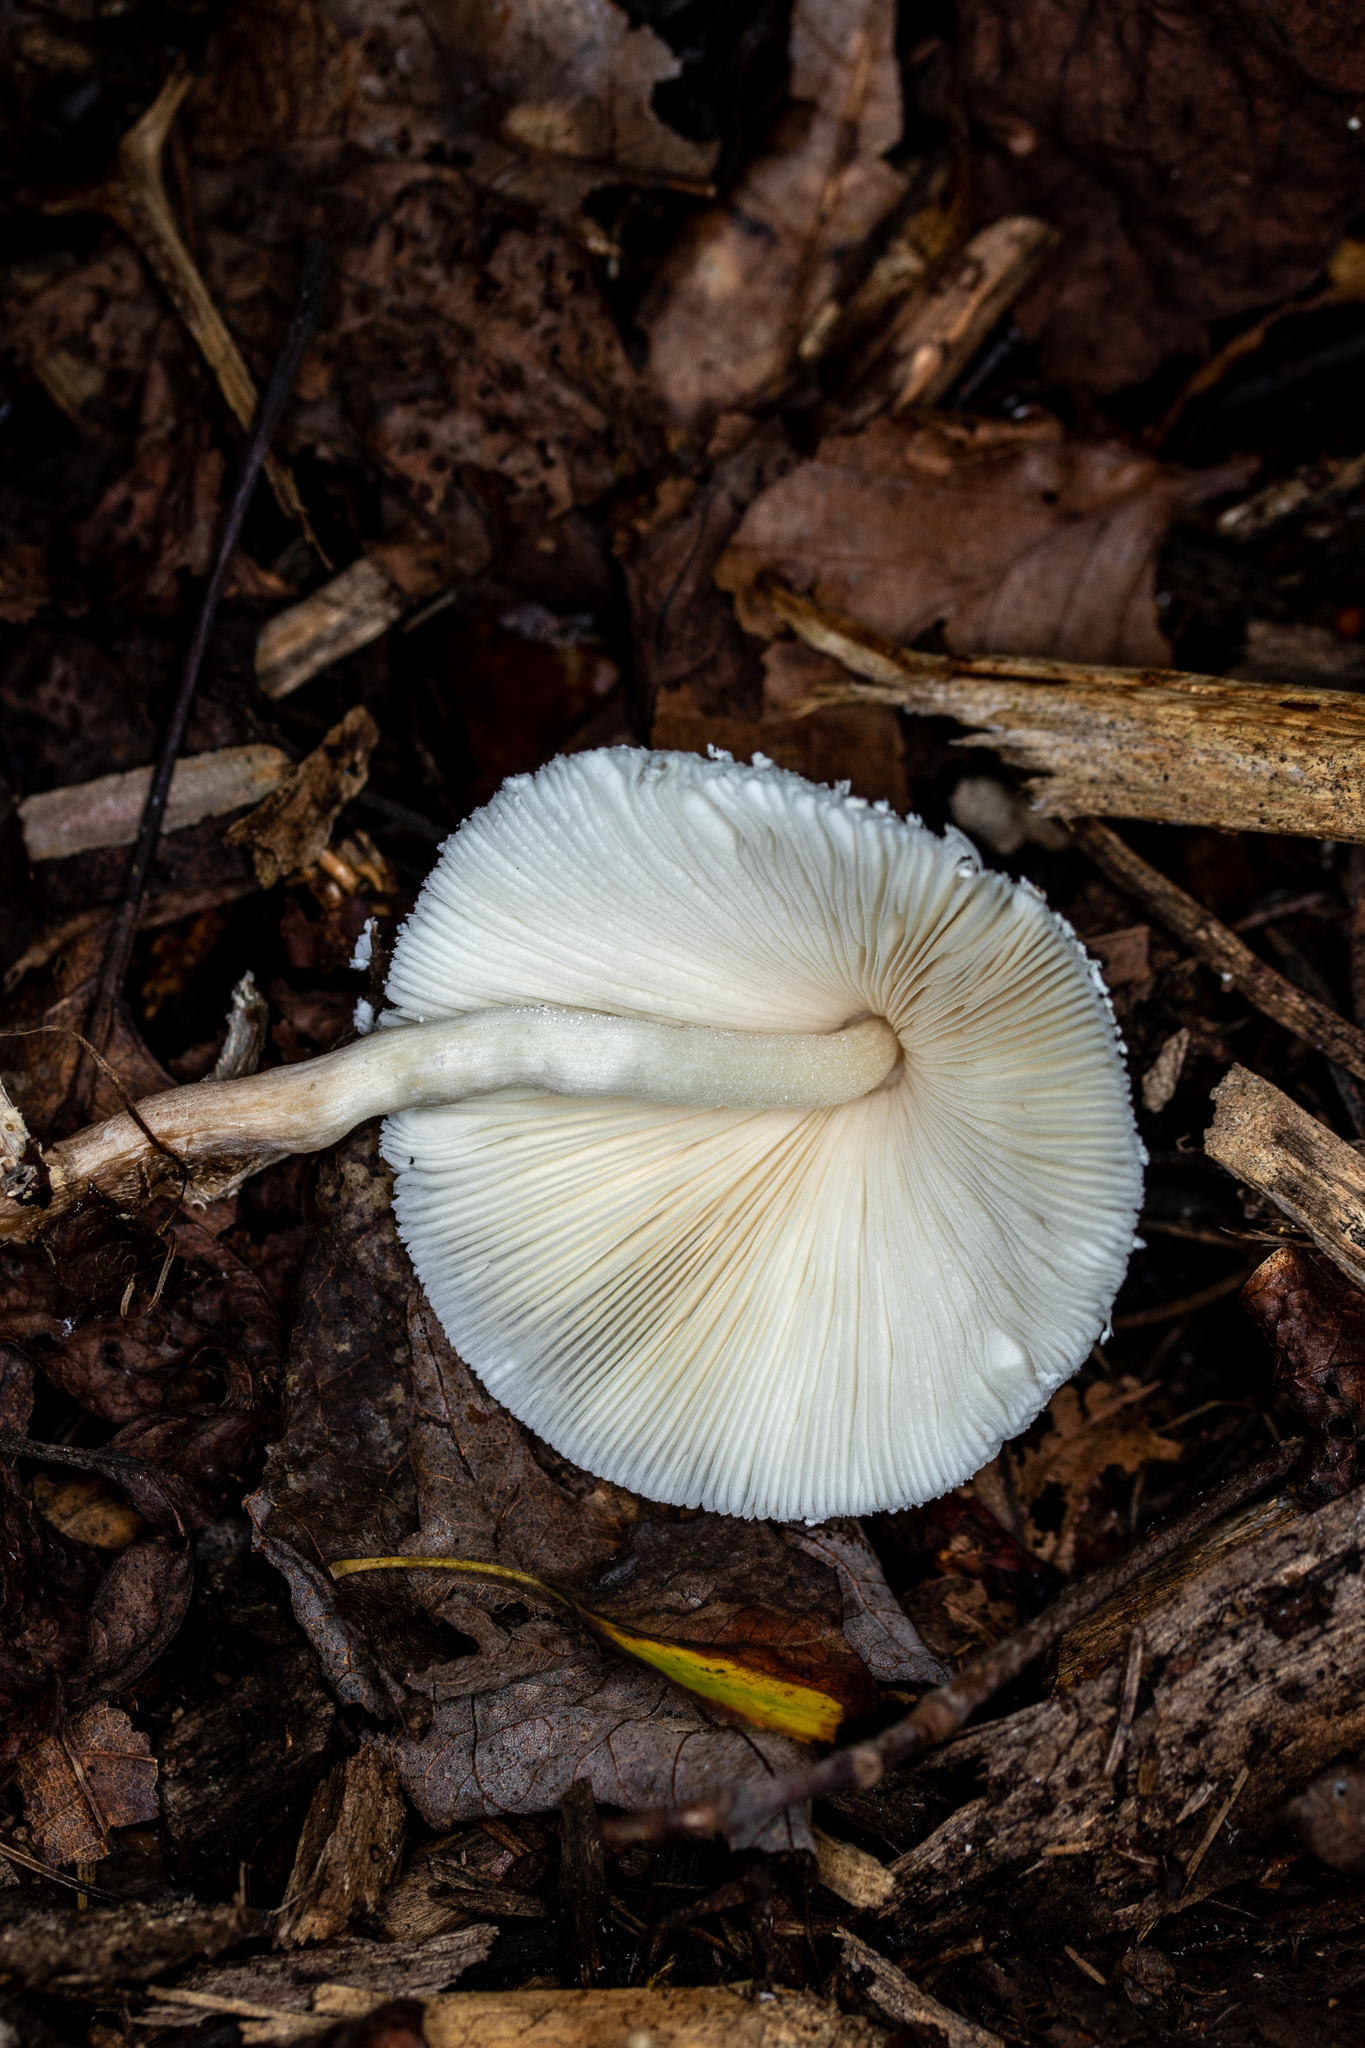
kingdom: Fungi
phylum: Basidiomycota
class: Agaricomycetes
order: Agaricales
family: Agaricaceae
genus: Leucocoprinus
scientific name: Leucocoprinus cepistipes
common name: Onion-stalk parasol
